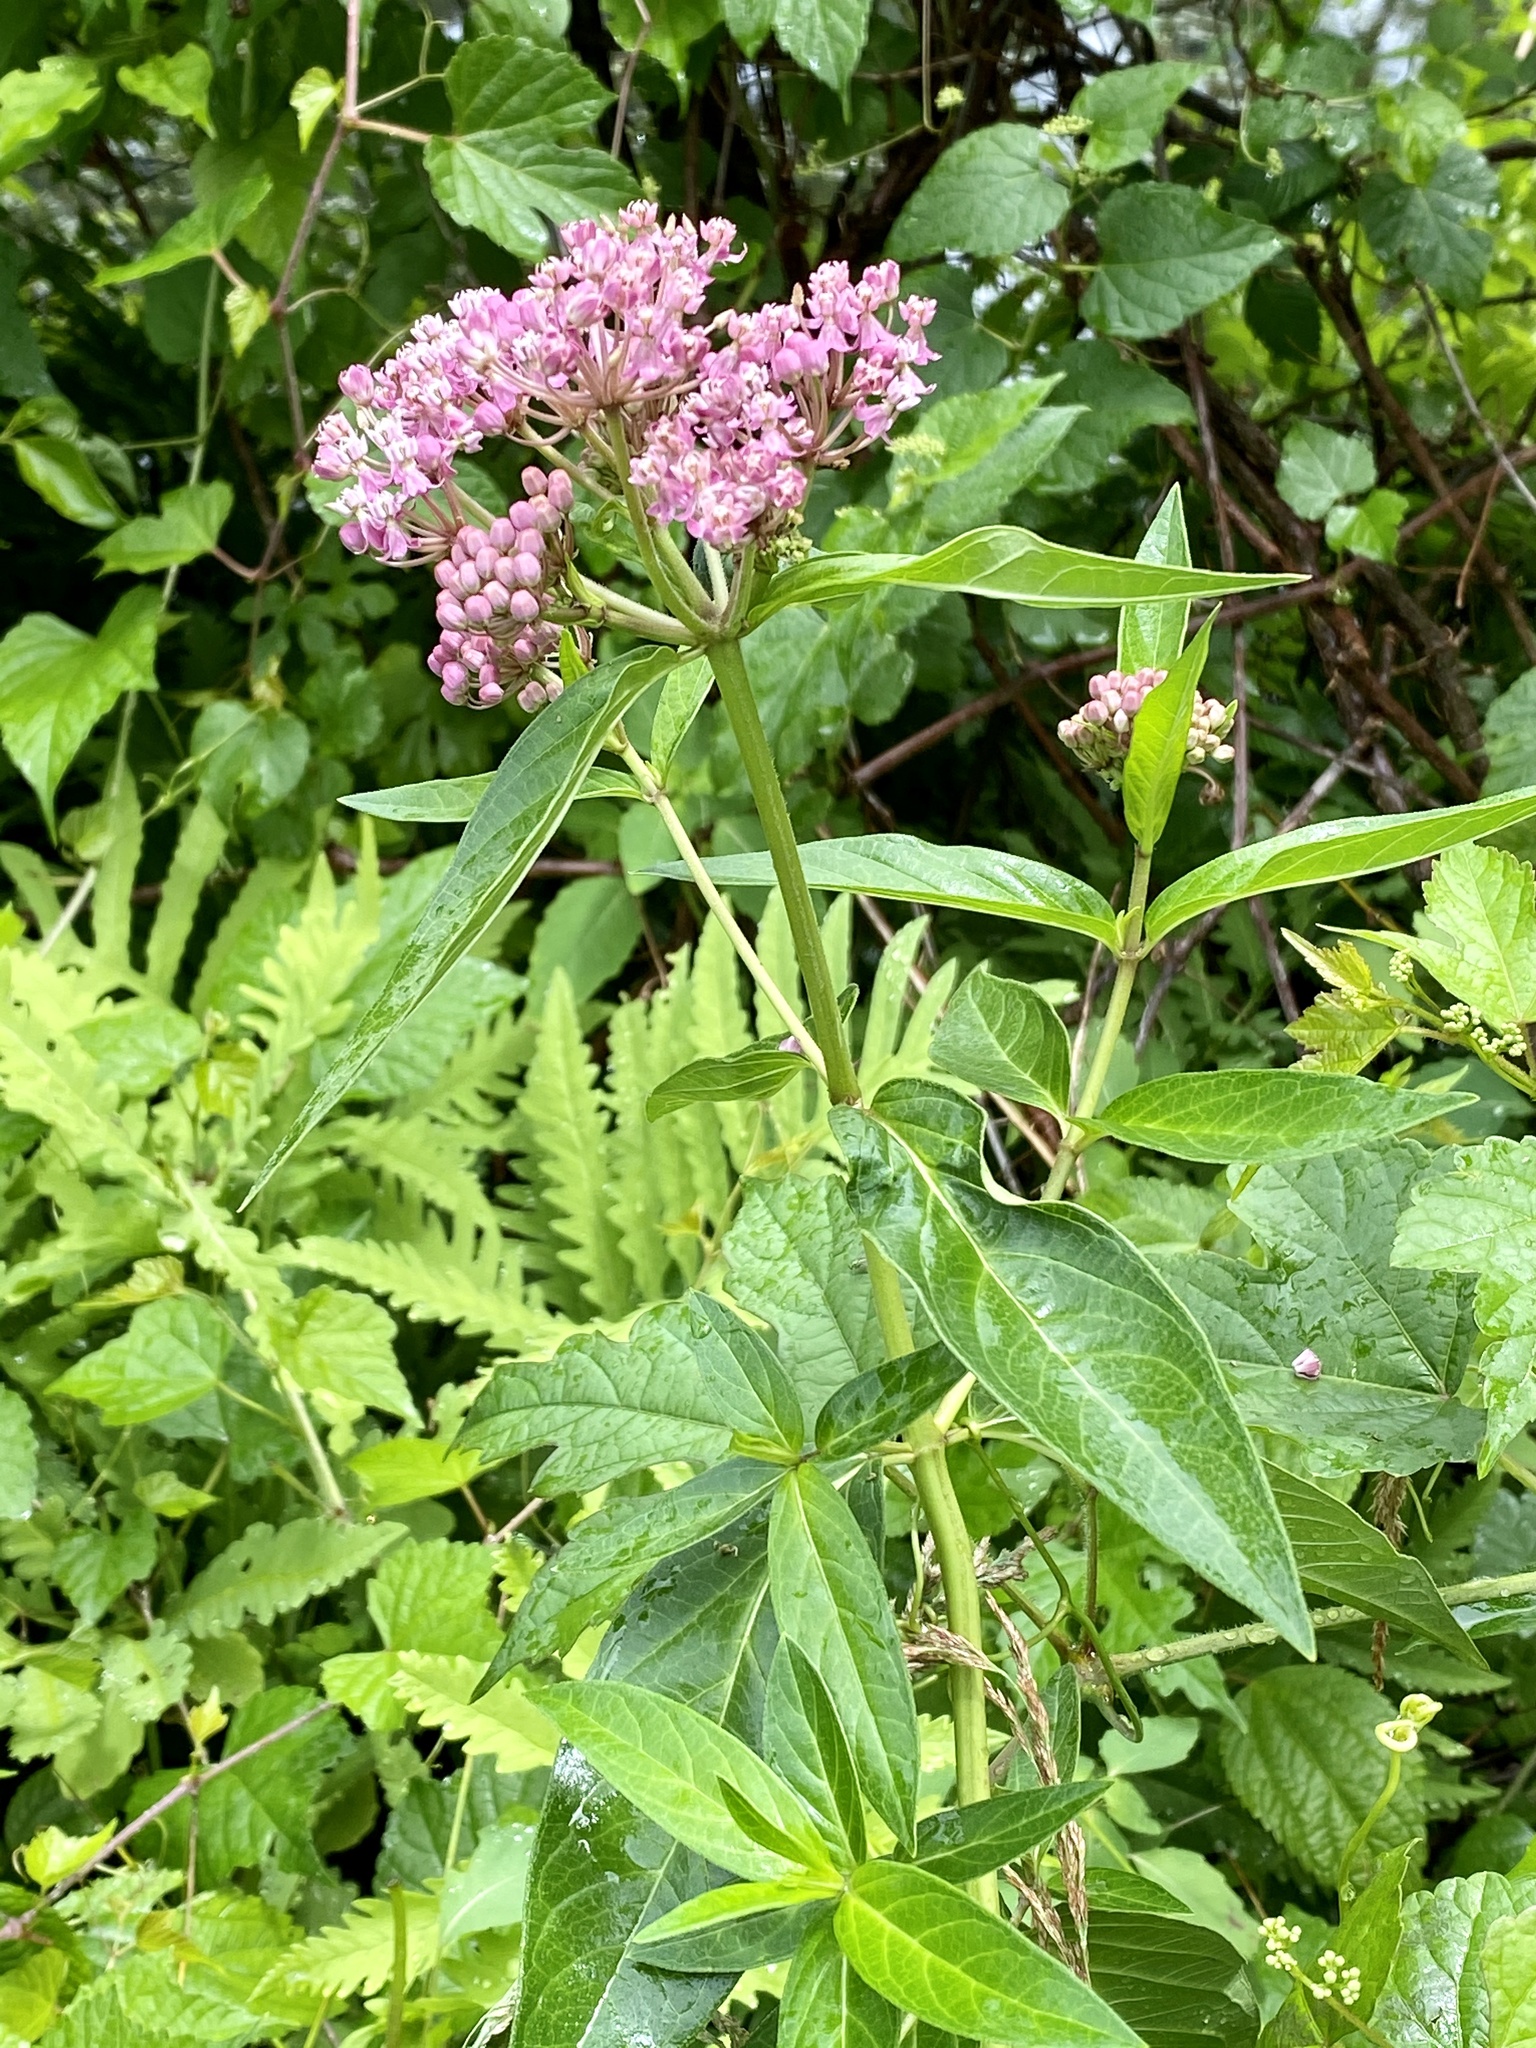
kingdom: Plantae
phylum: Tracheophyta
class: Magnoliopsida
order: Gentianales
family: Apocynaceae
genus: Asclepias
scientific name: Asclepias incarnata
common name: Swamp milkweed
